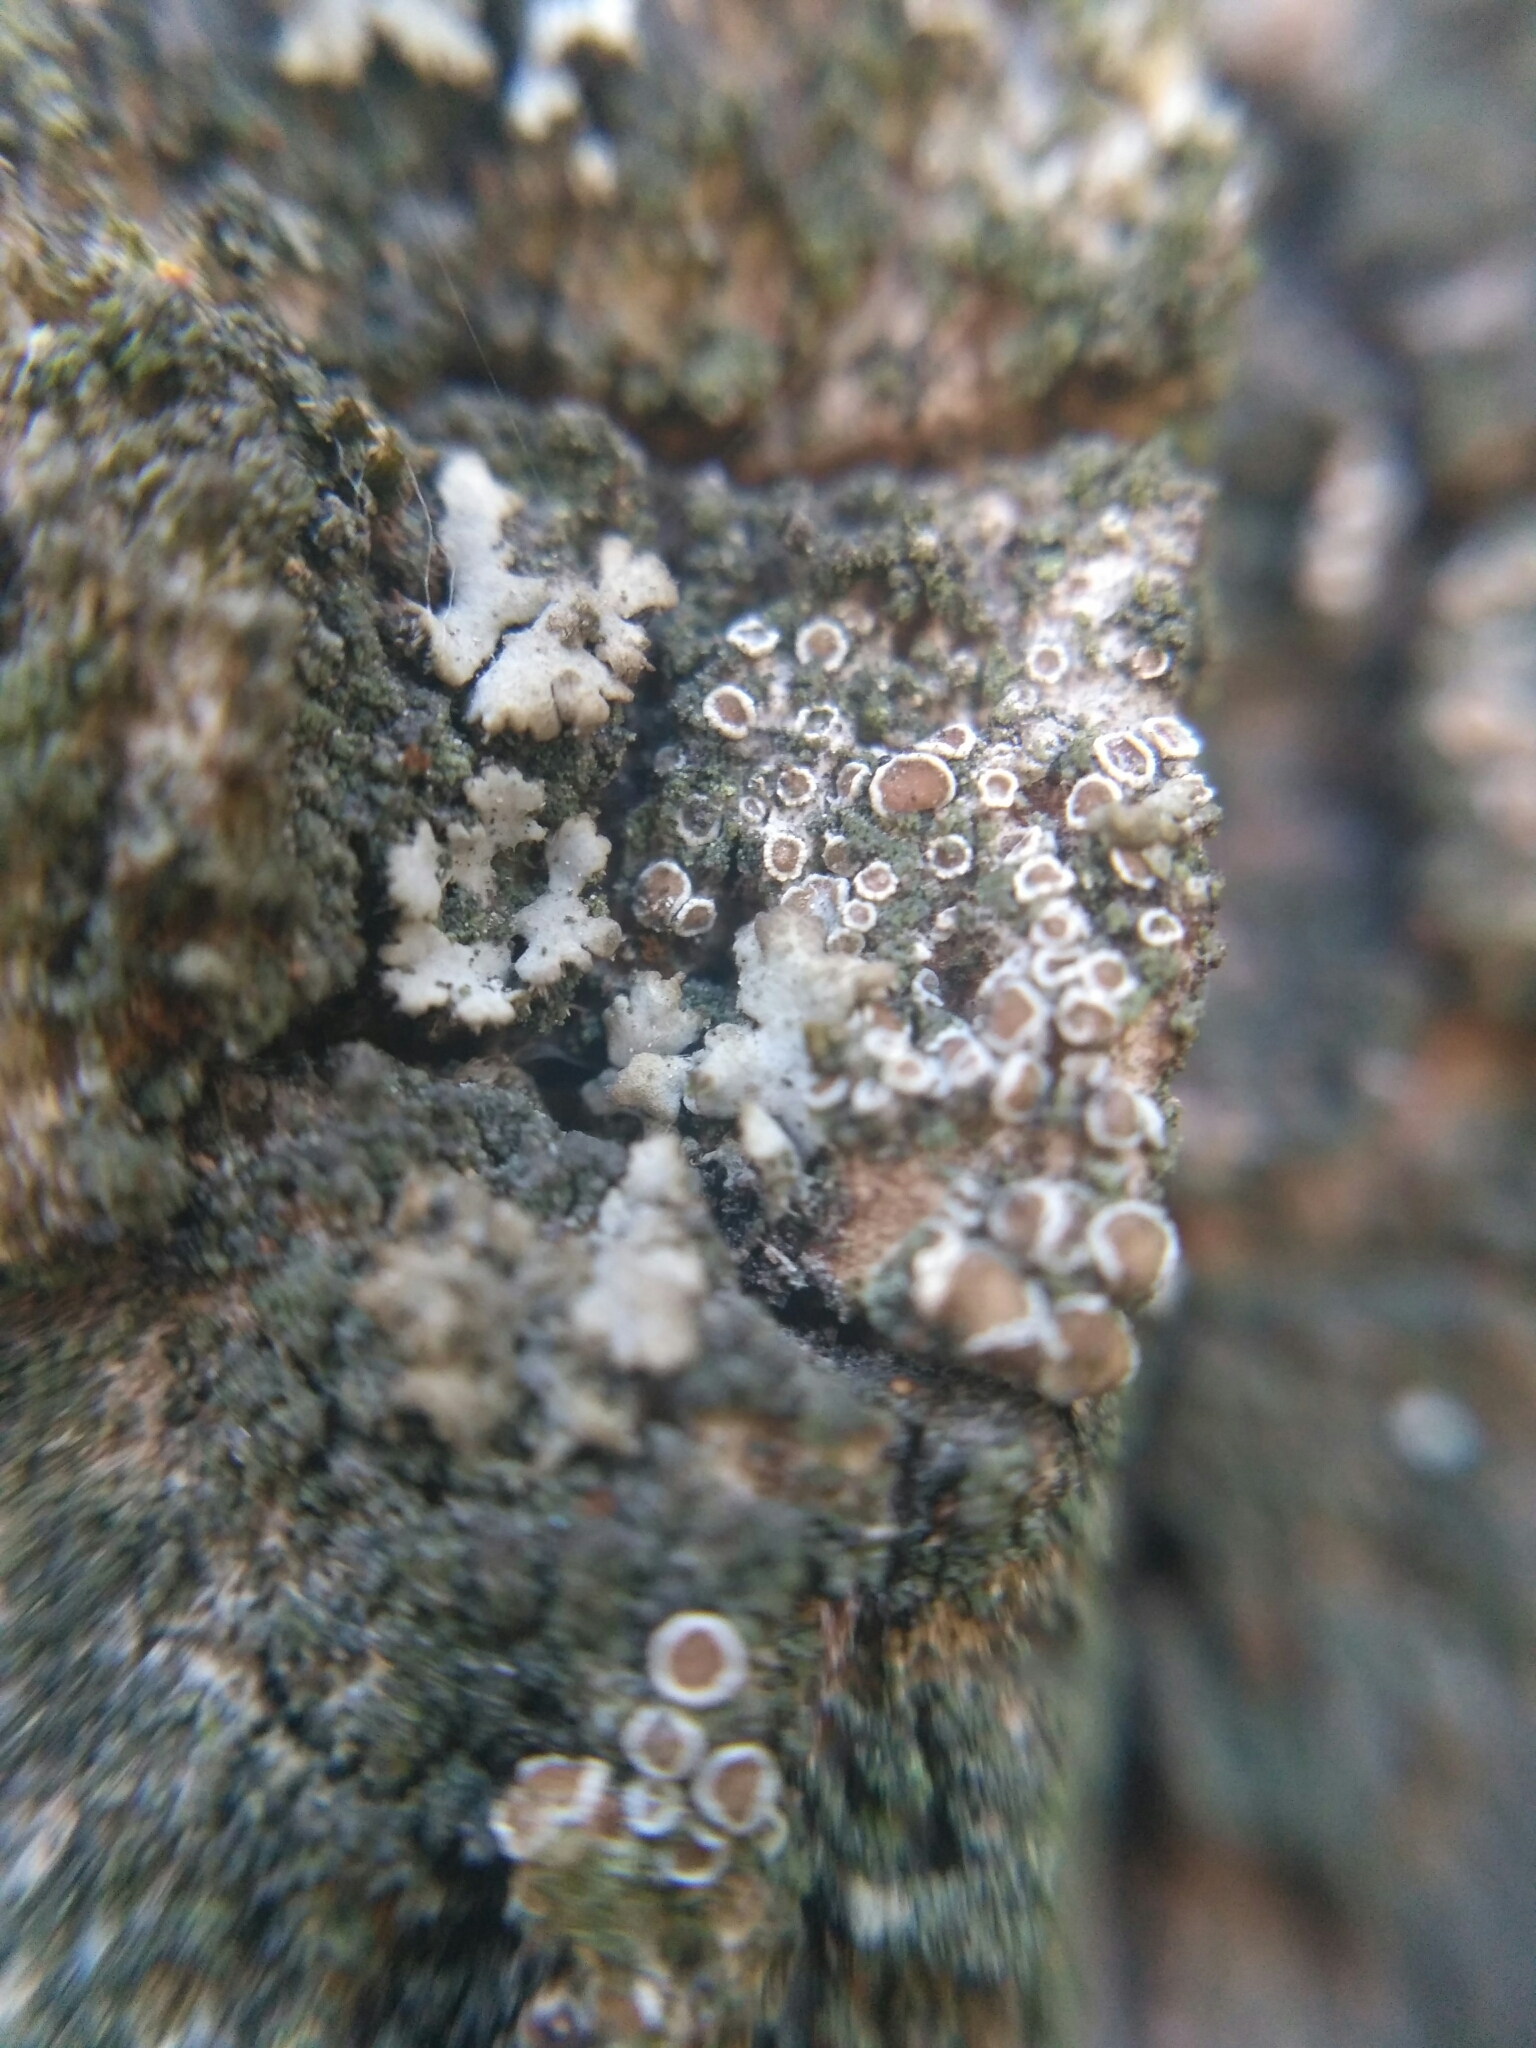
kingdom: Fungi
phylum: Ascomycota
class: Lecanoromycetes
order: Lecanorales
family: Lecanoraceae
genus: Polyozosia
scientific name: Polyozosia hagenii
